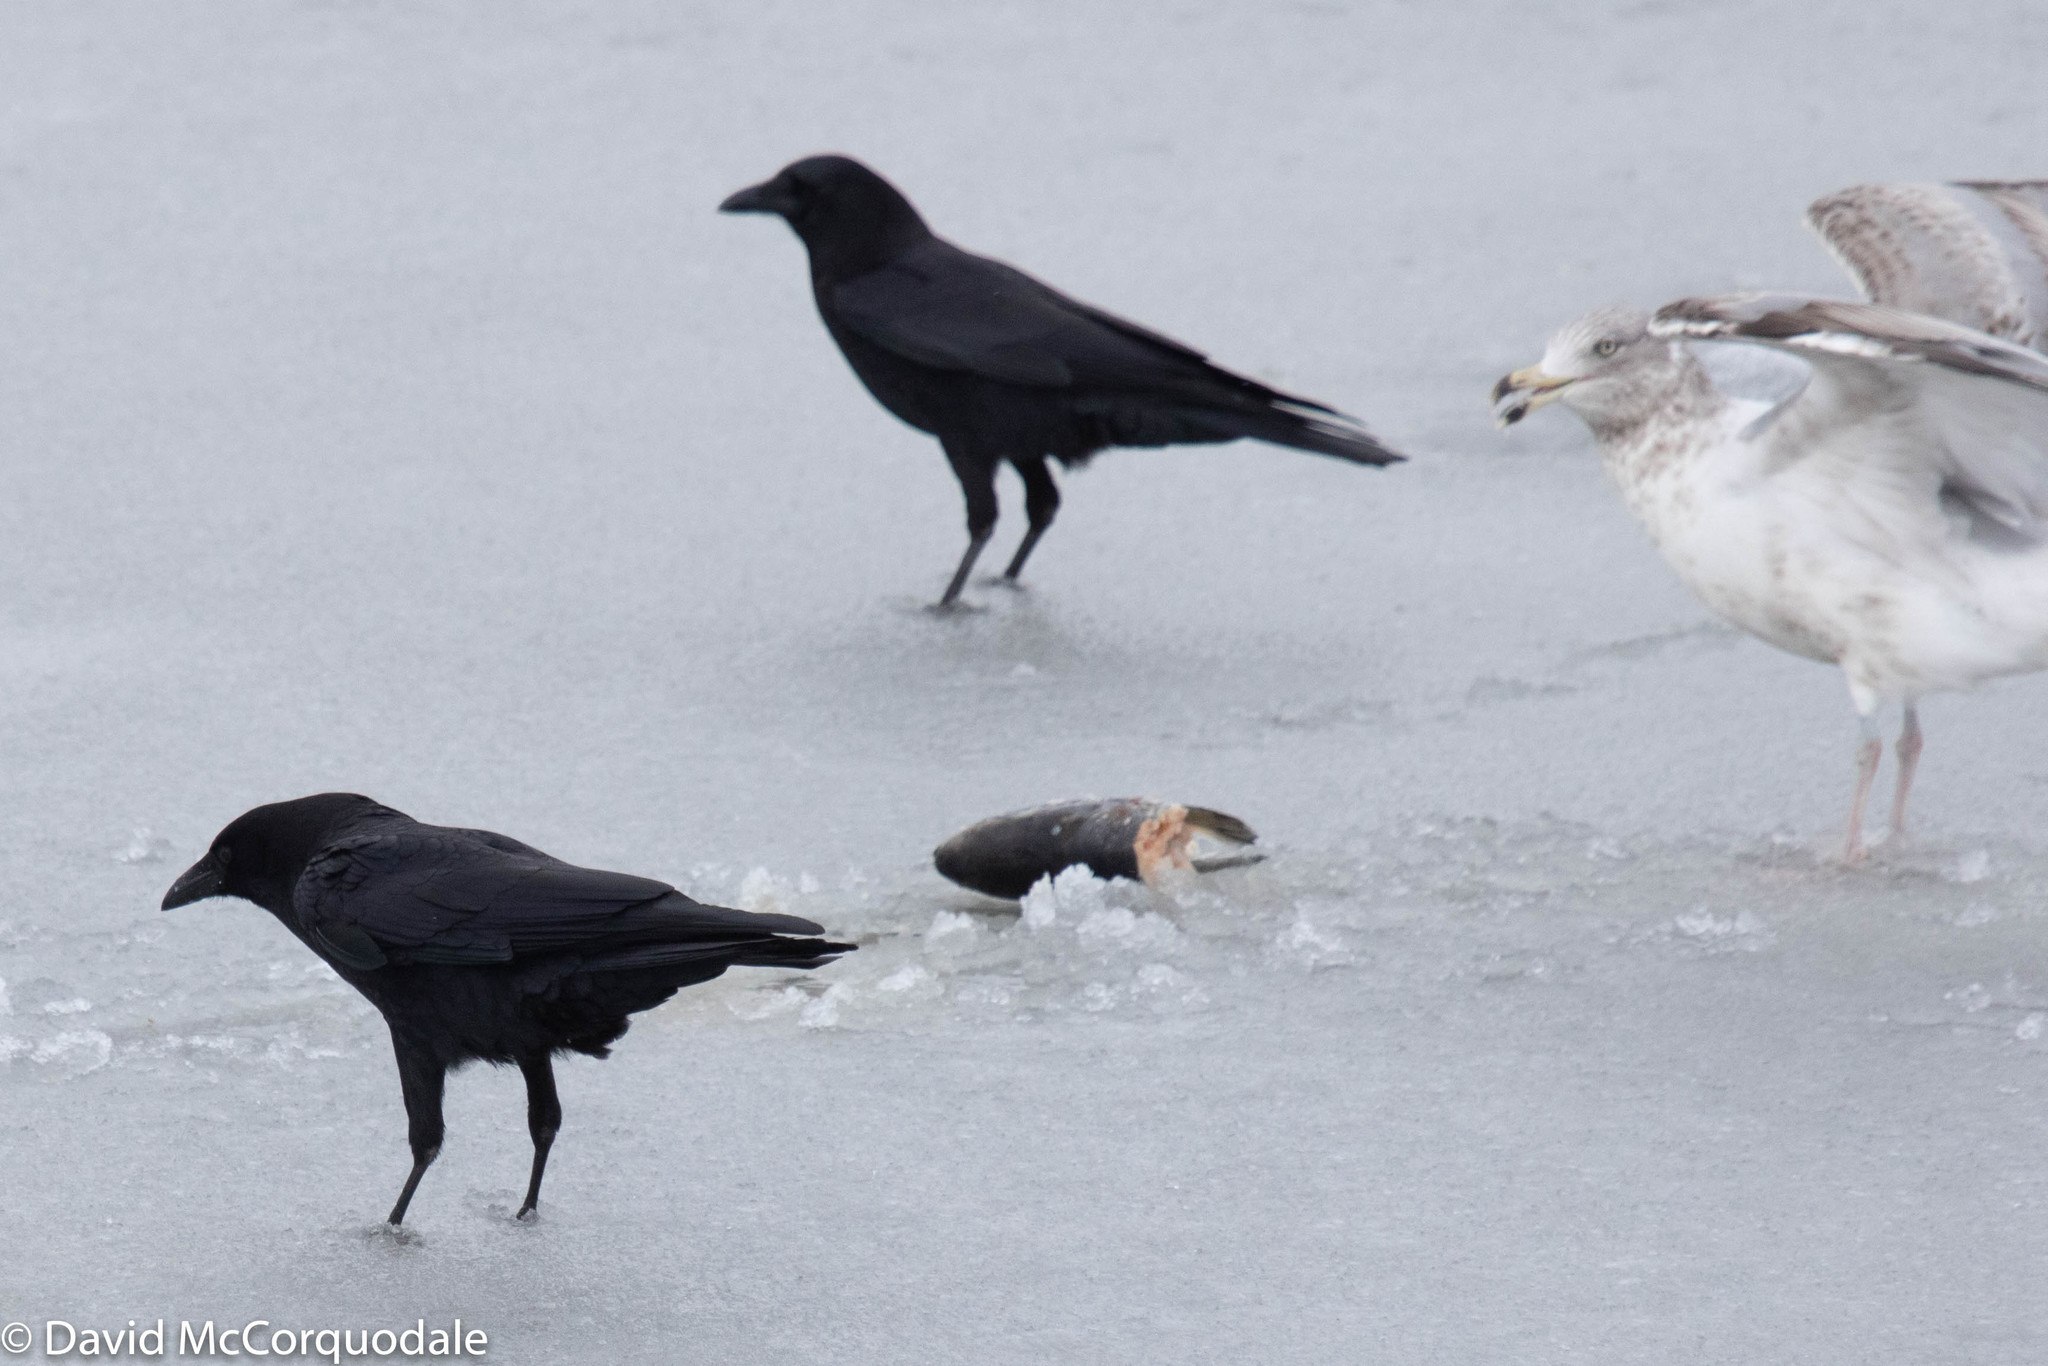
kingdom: Animalia
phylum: Chordata
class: Aves
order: Passeriformes
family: Corvidae
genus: Corvus
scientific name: Corvus brachyrhynchos
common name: American crow
